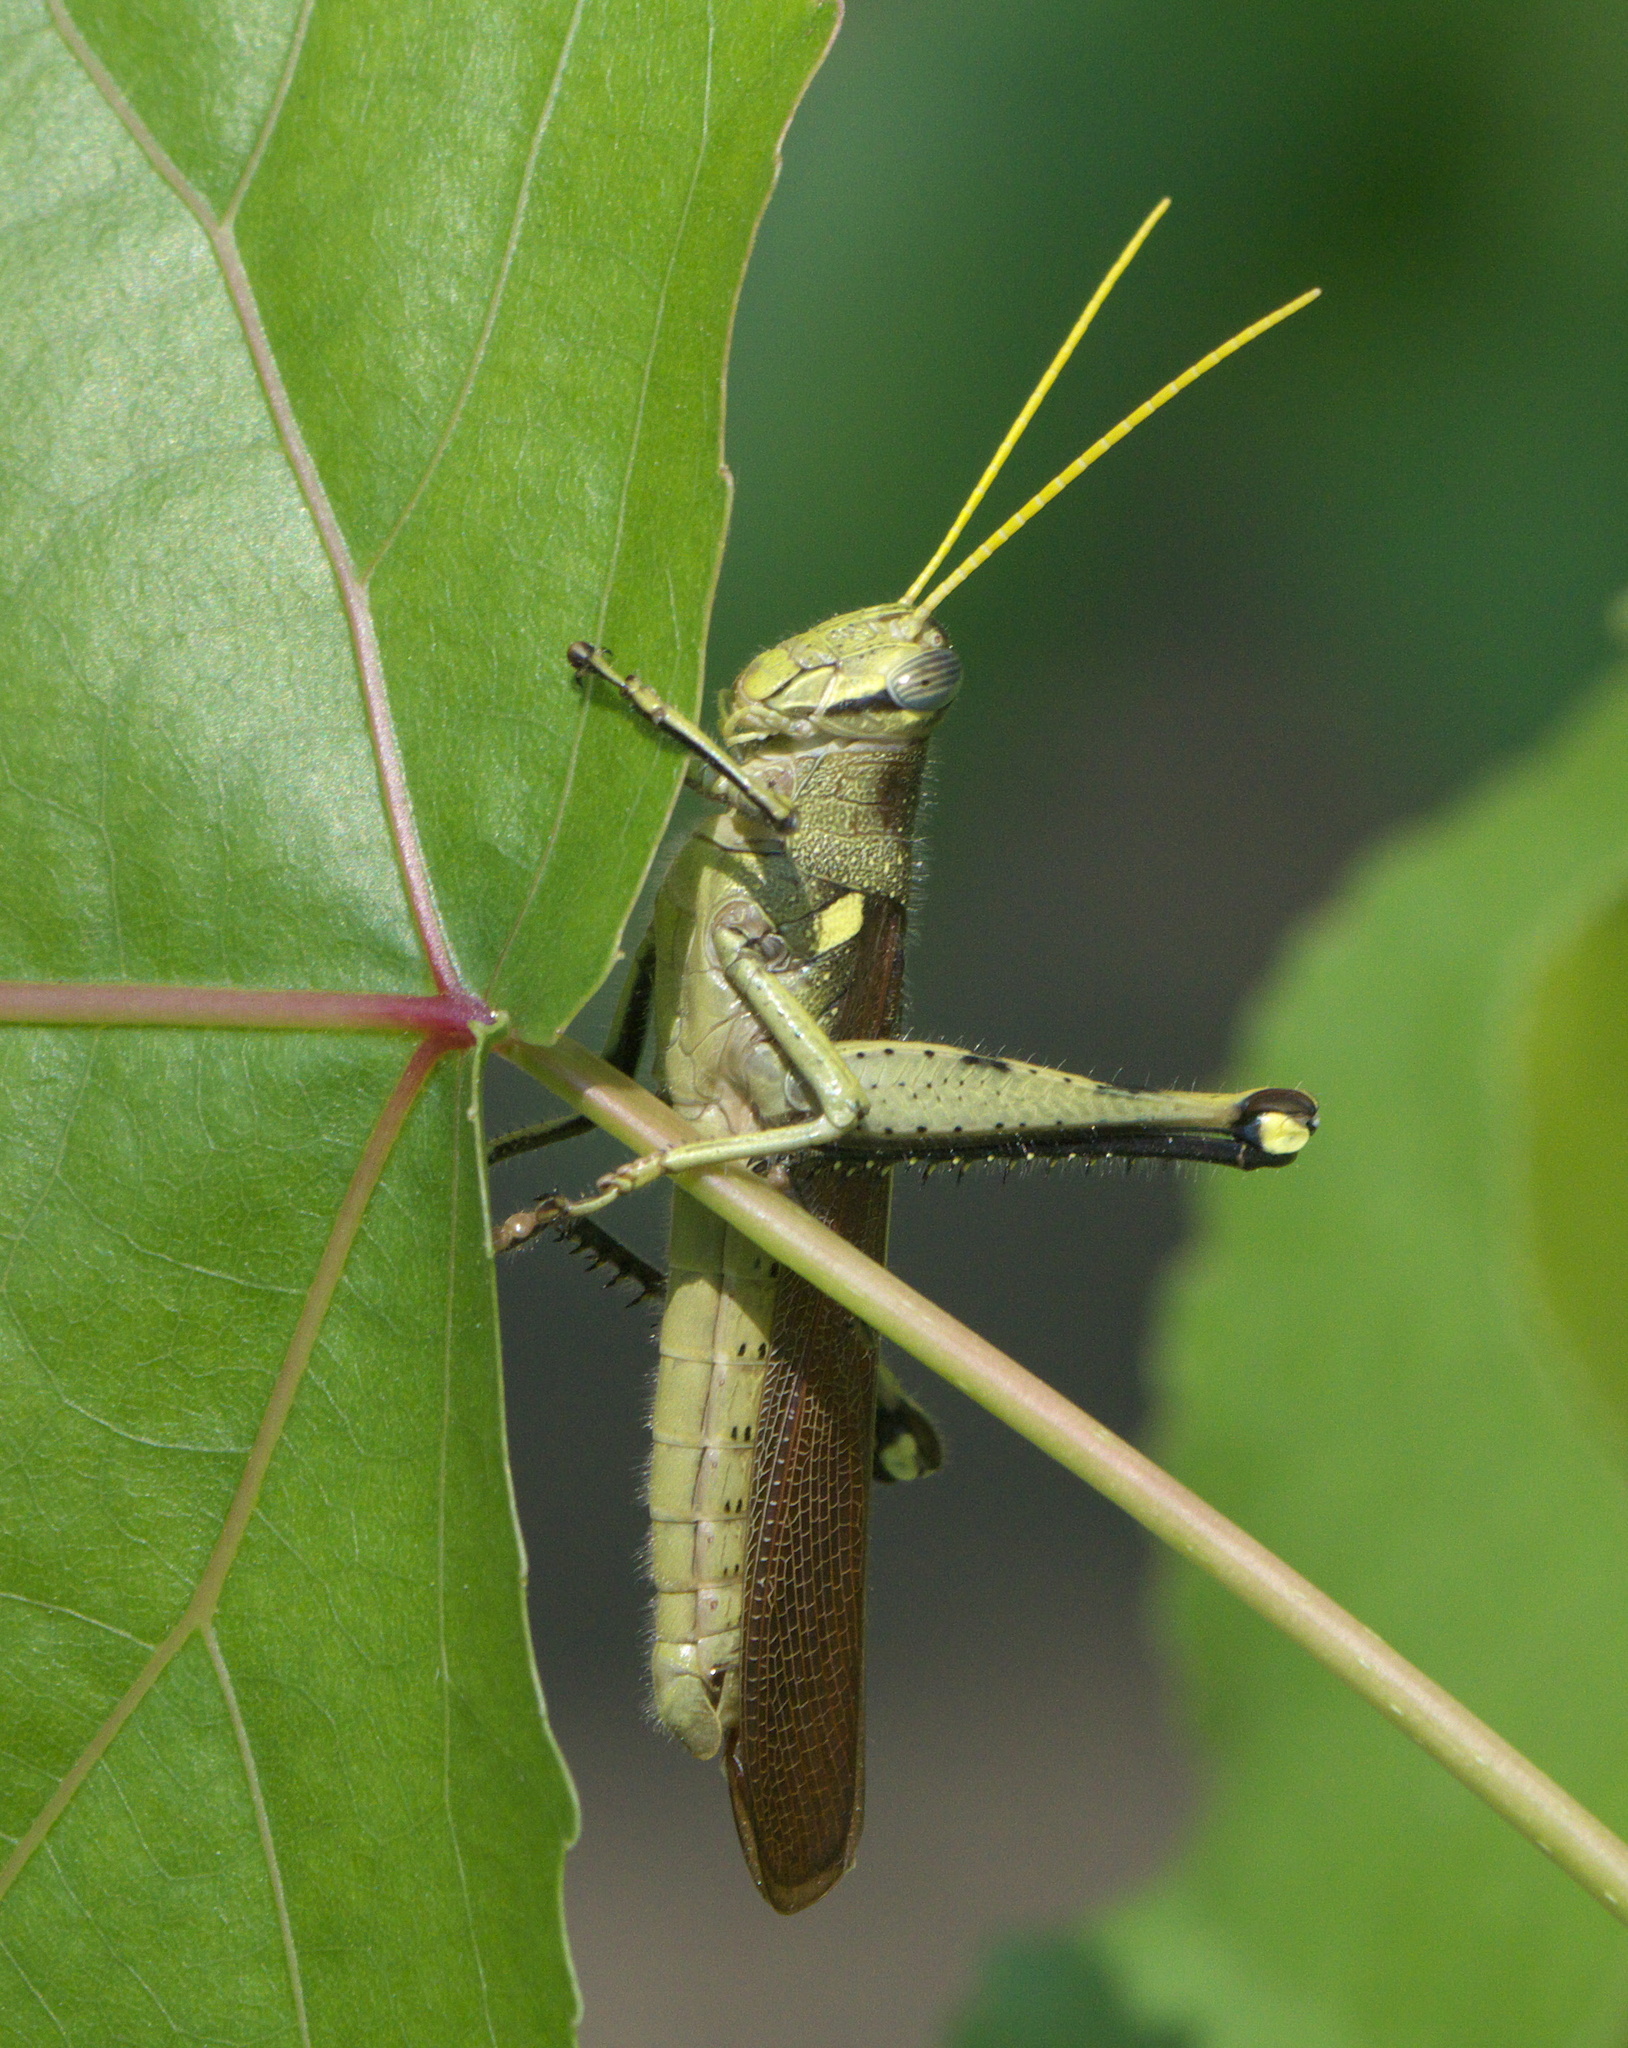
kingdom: Animalia
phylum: Arthropoda
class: Insecta
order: Orthoptera
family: Acrididae
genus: Schistocerca
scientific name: Schistocerca obscura
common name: Obscure bird grasshopper
